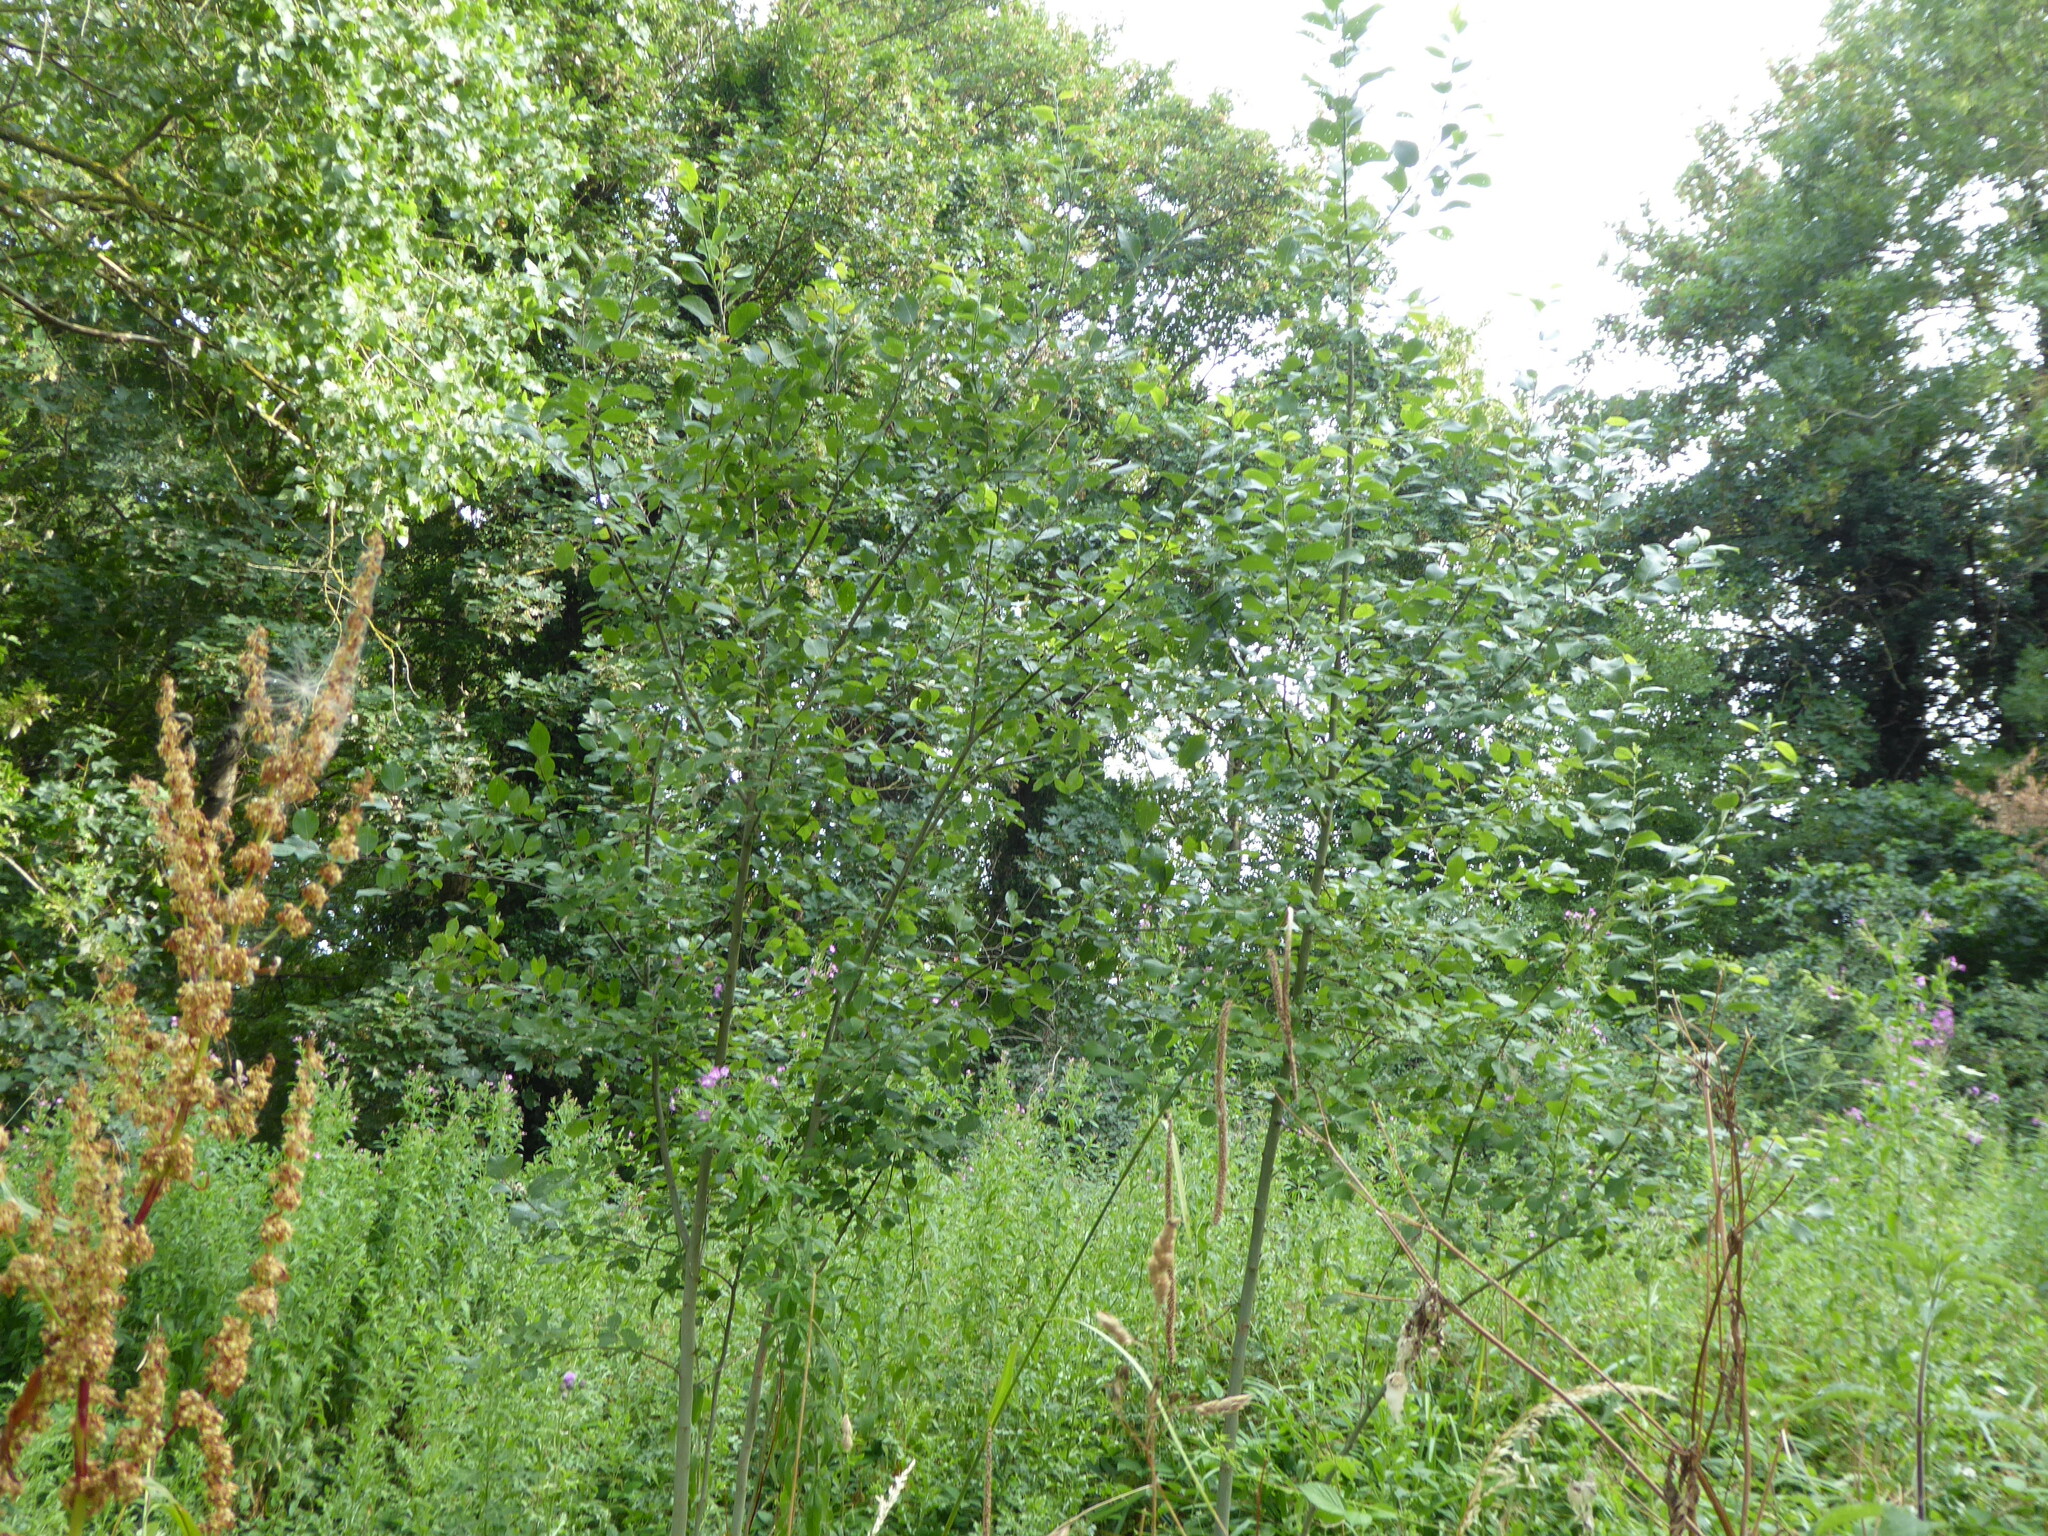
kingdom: Plantae
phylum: Tracheophyta
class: Magnoliopsida
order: Malpighiales
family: Salicaceae
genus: Salix
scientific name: Salix caprea
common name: Goat willow
